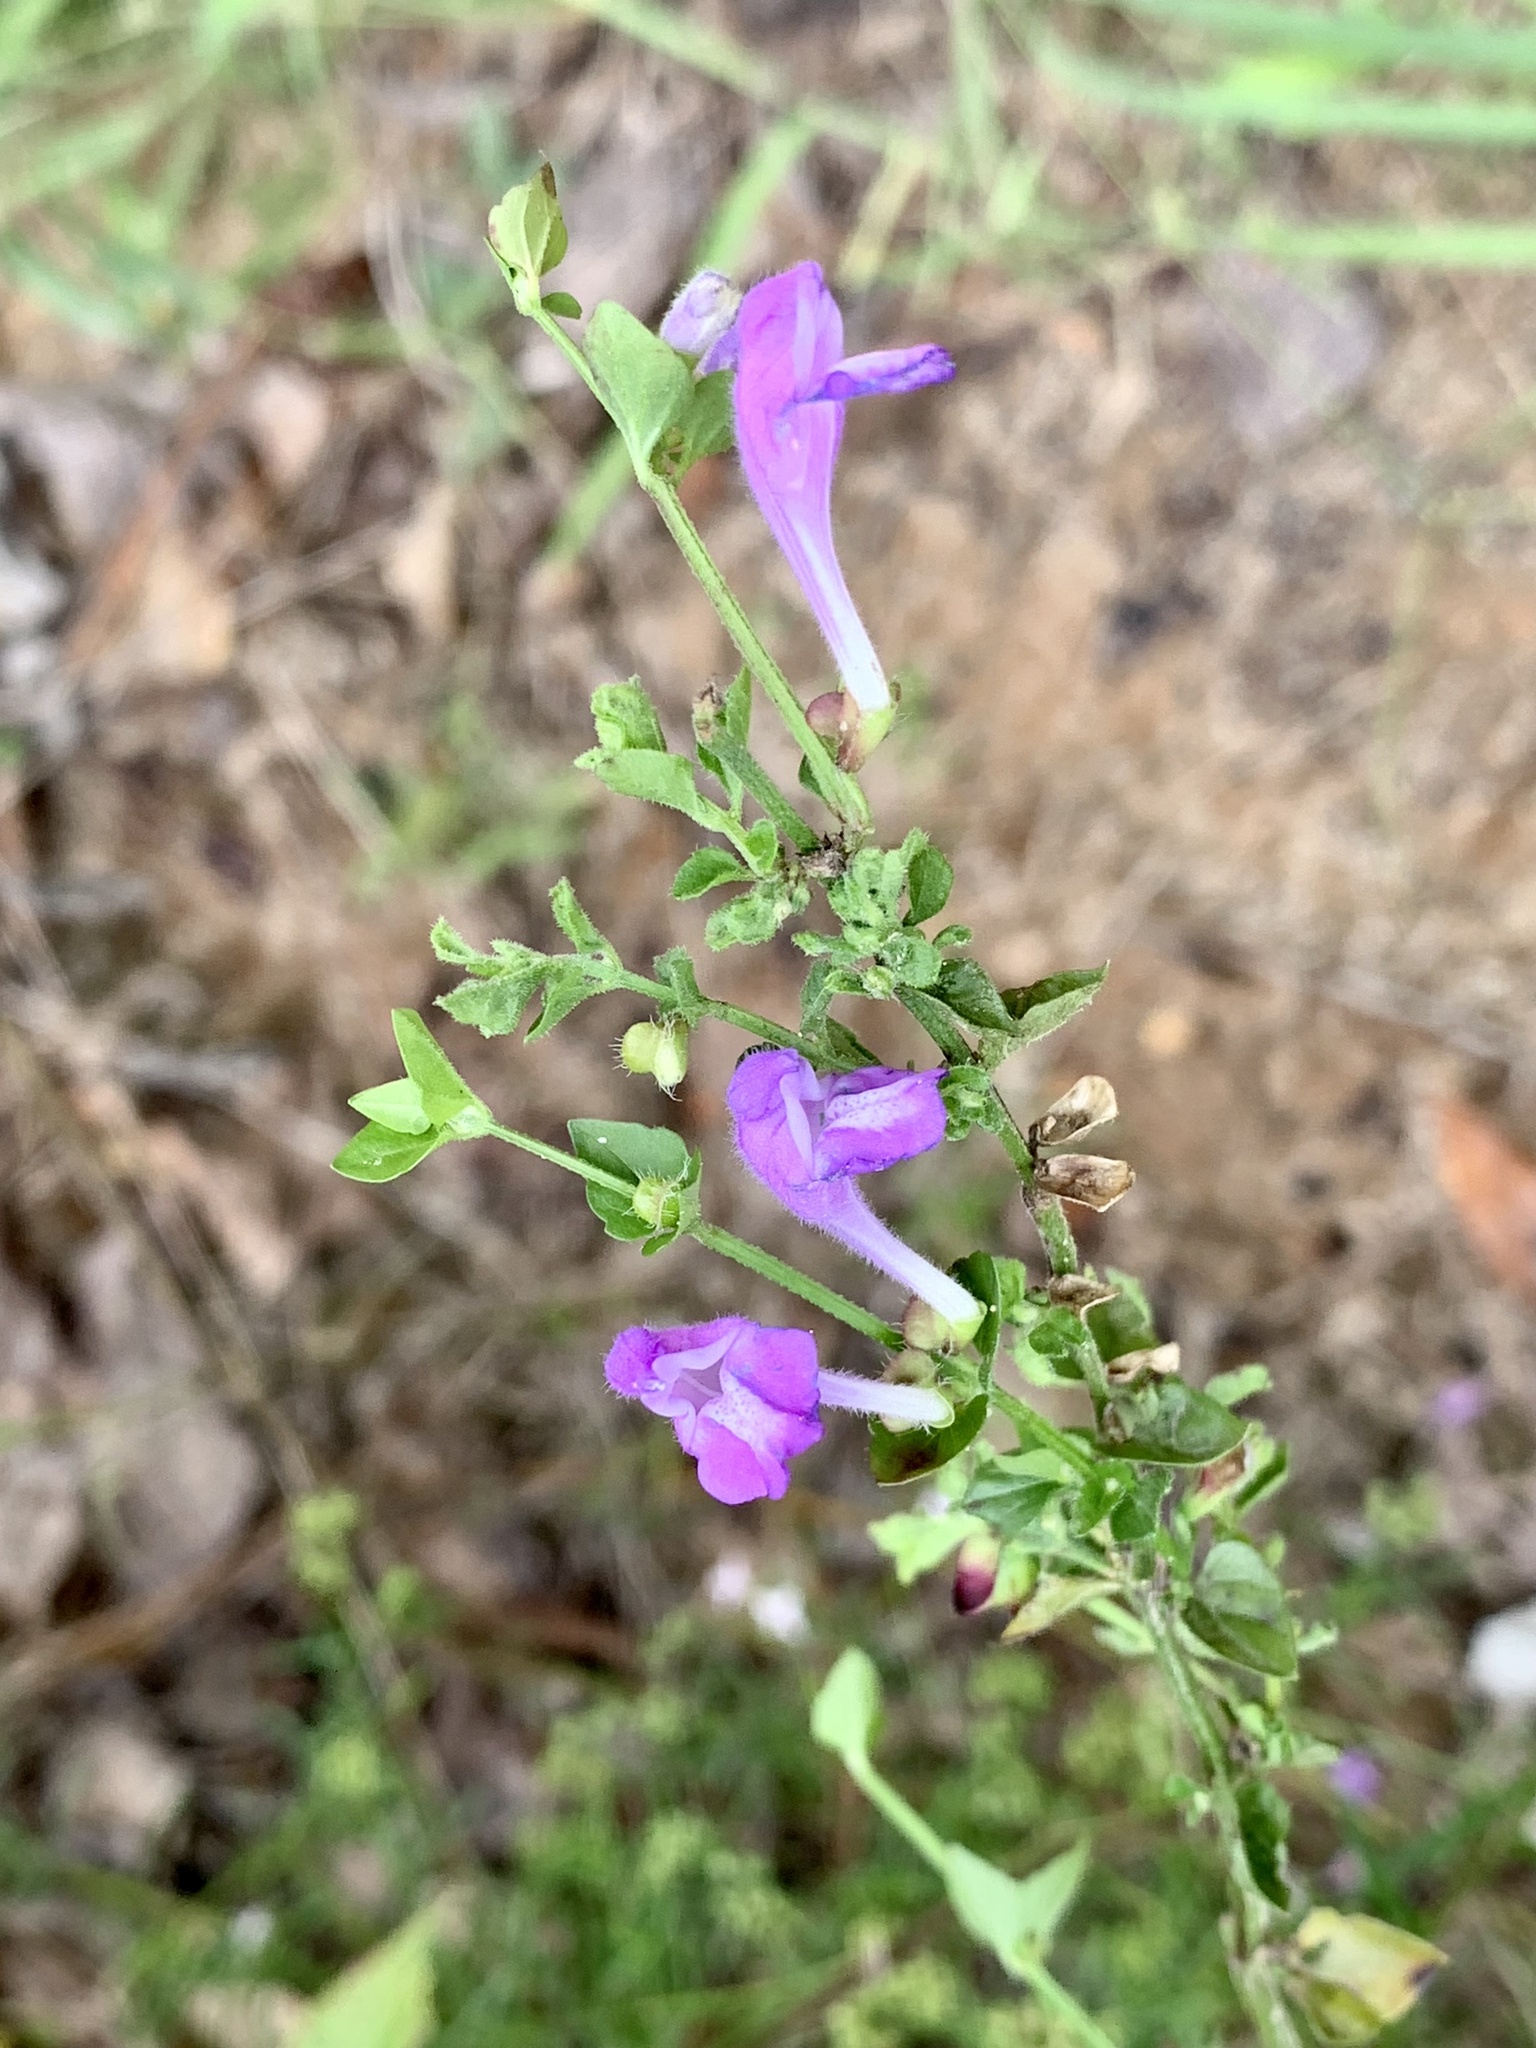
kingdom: Plantae
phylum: Tracheophyta
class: Magnoliopsida
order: Lamiales
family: Lamiaceae
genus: Scutellaria
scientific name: Scutellaria cardiophylla
